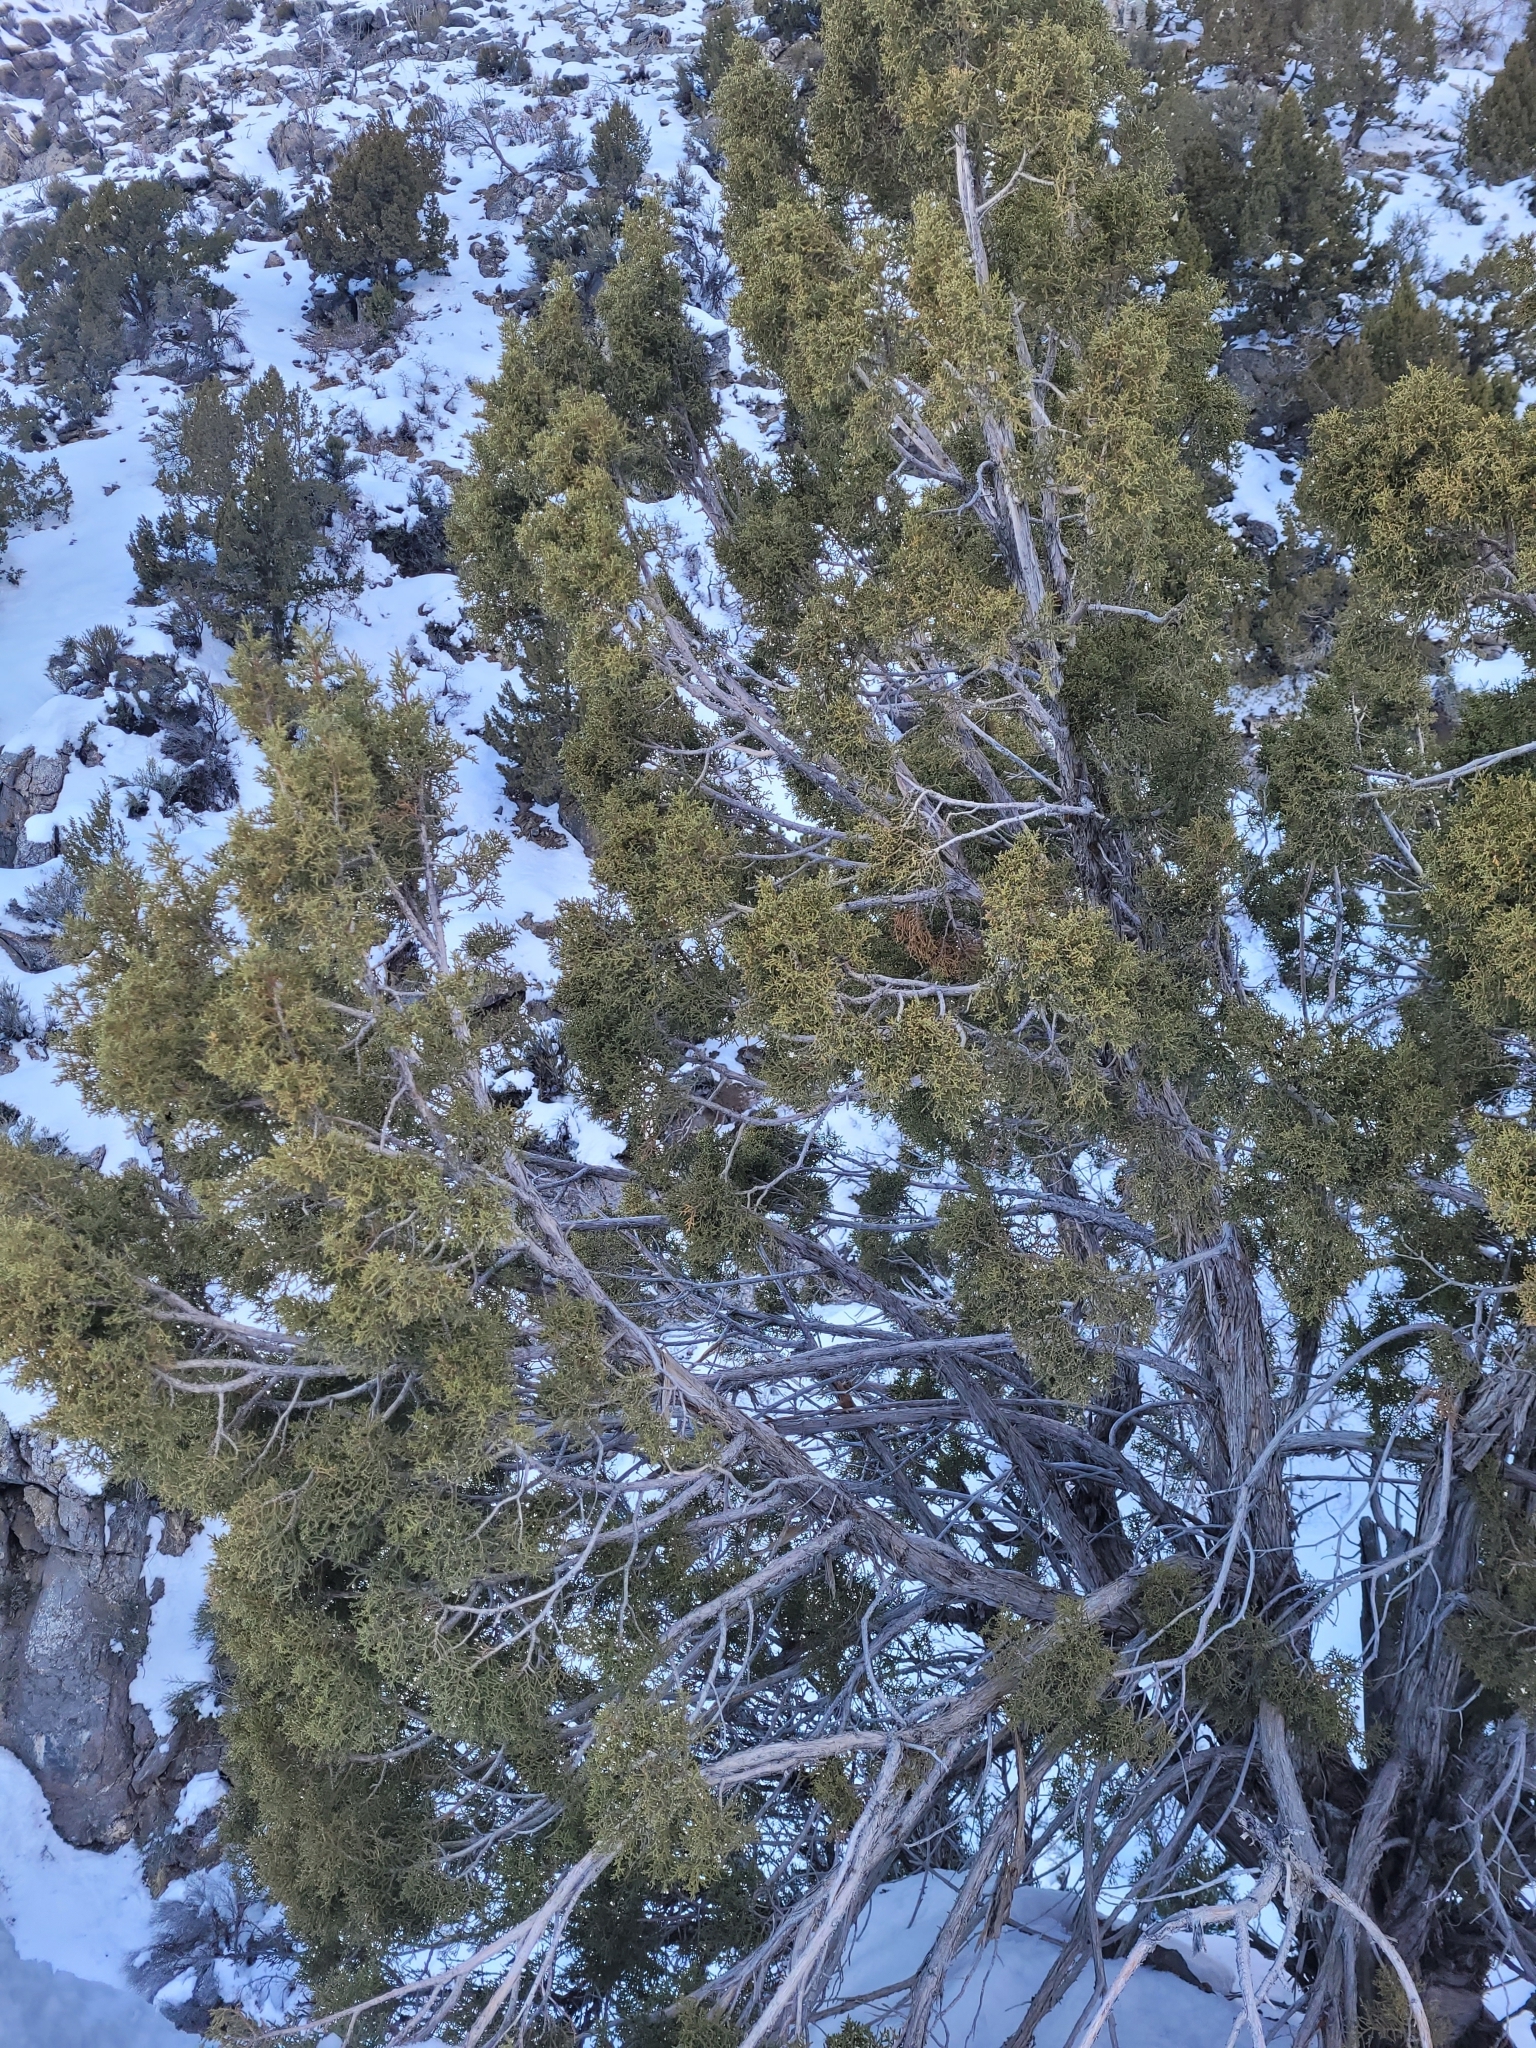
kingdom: Plantae
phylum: Tracheophyta
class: Pinopsida
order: Pinales
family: Cupressaceae
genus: Juniperus
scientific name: Juniperus osteosperma
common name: Utah juniper
